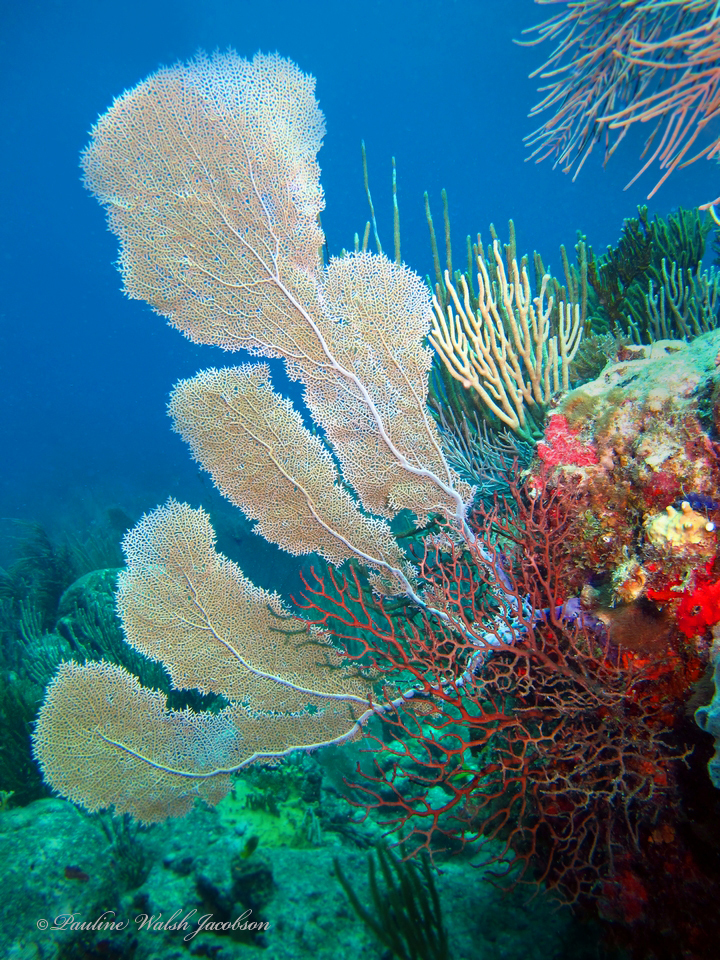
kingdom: Animalia
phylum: Cnidaria
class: Anthozoa
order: Malacalcyonacea
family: Gorgoniidae
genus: Gorgonia
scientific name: Gorgonia ventalina
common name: Common sea fan
